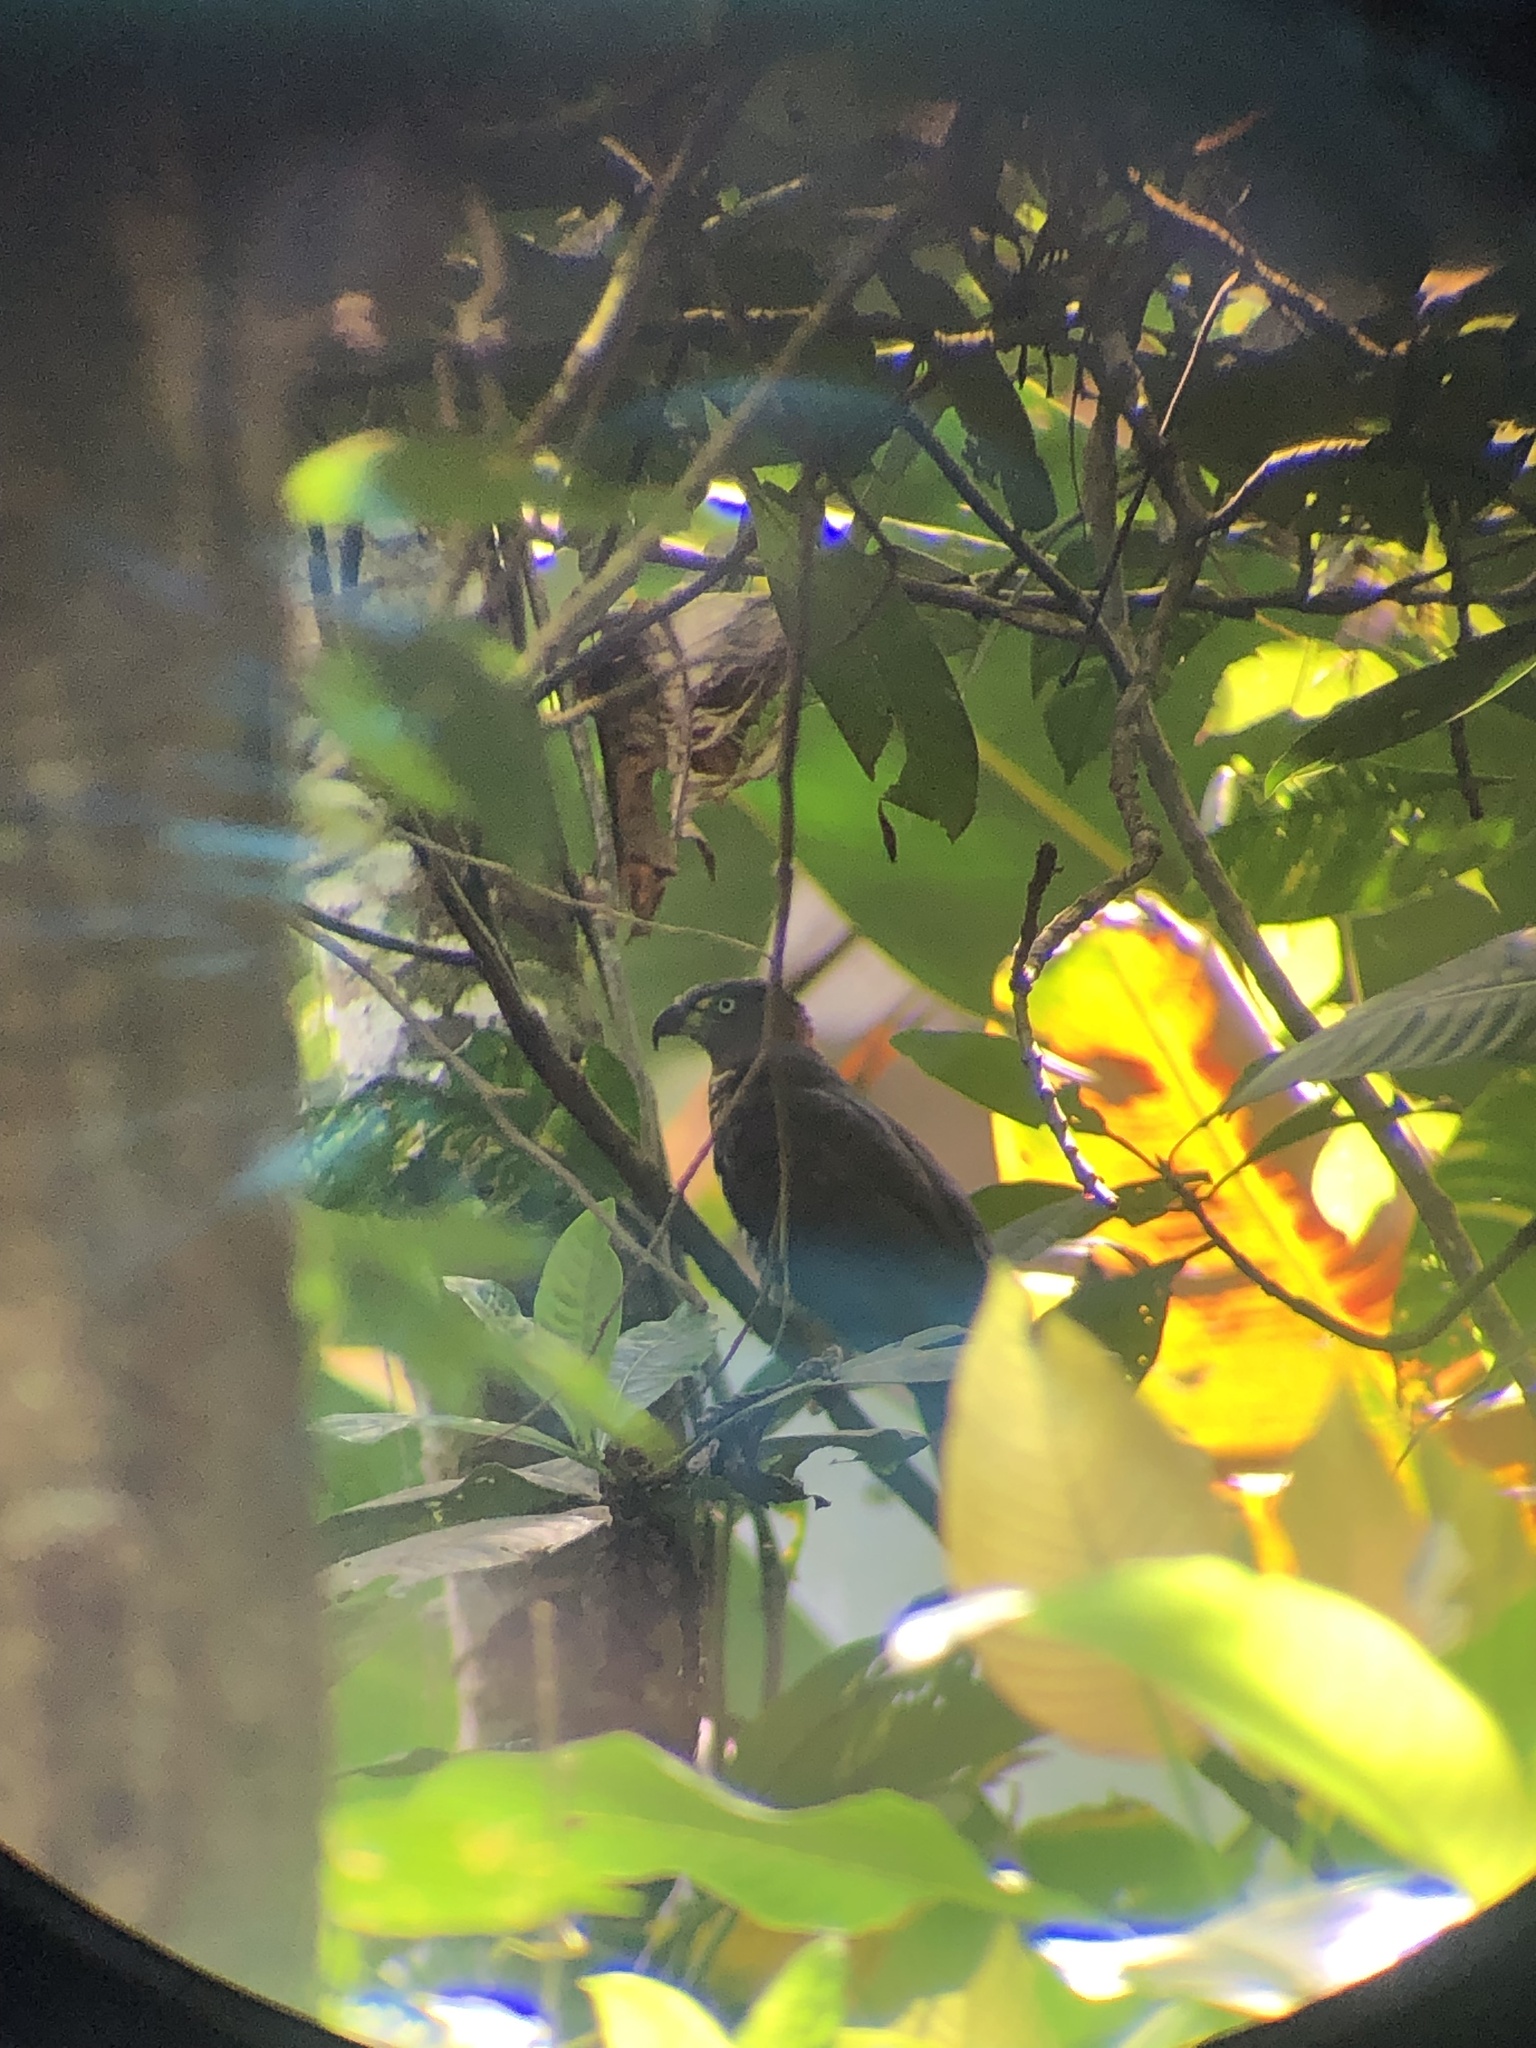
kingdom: Animalia
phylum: Chordata
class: Aves
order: Accipitriformes
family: Accipitridae
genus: Chondrohierax
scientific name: Chondrohierax uncinatus
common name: Hook-billed kite
